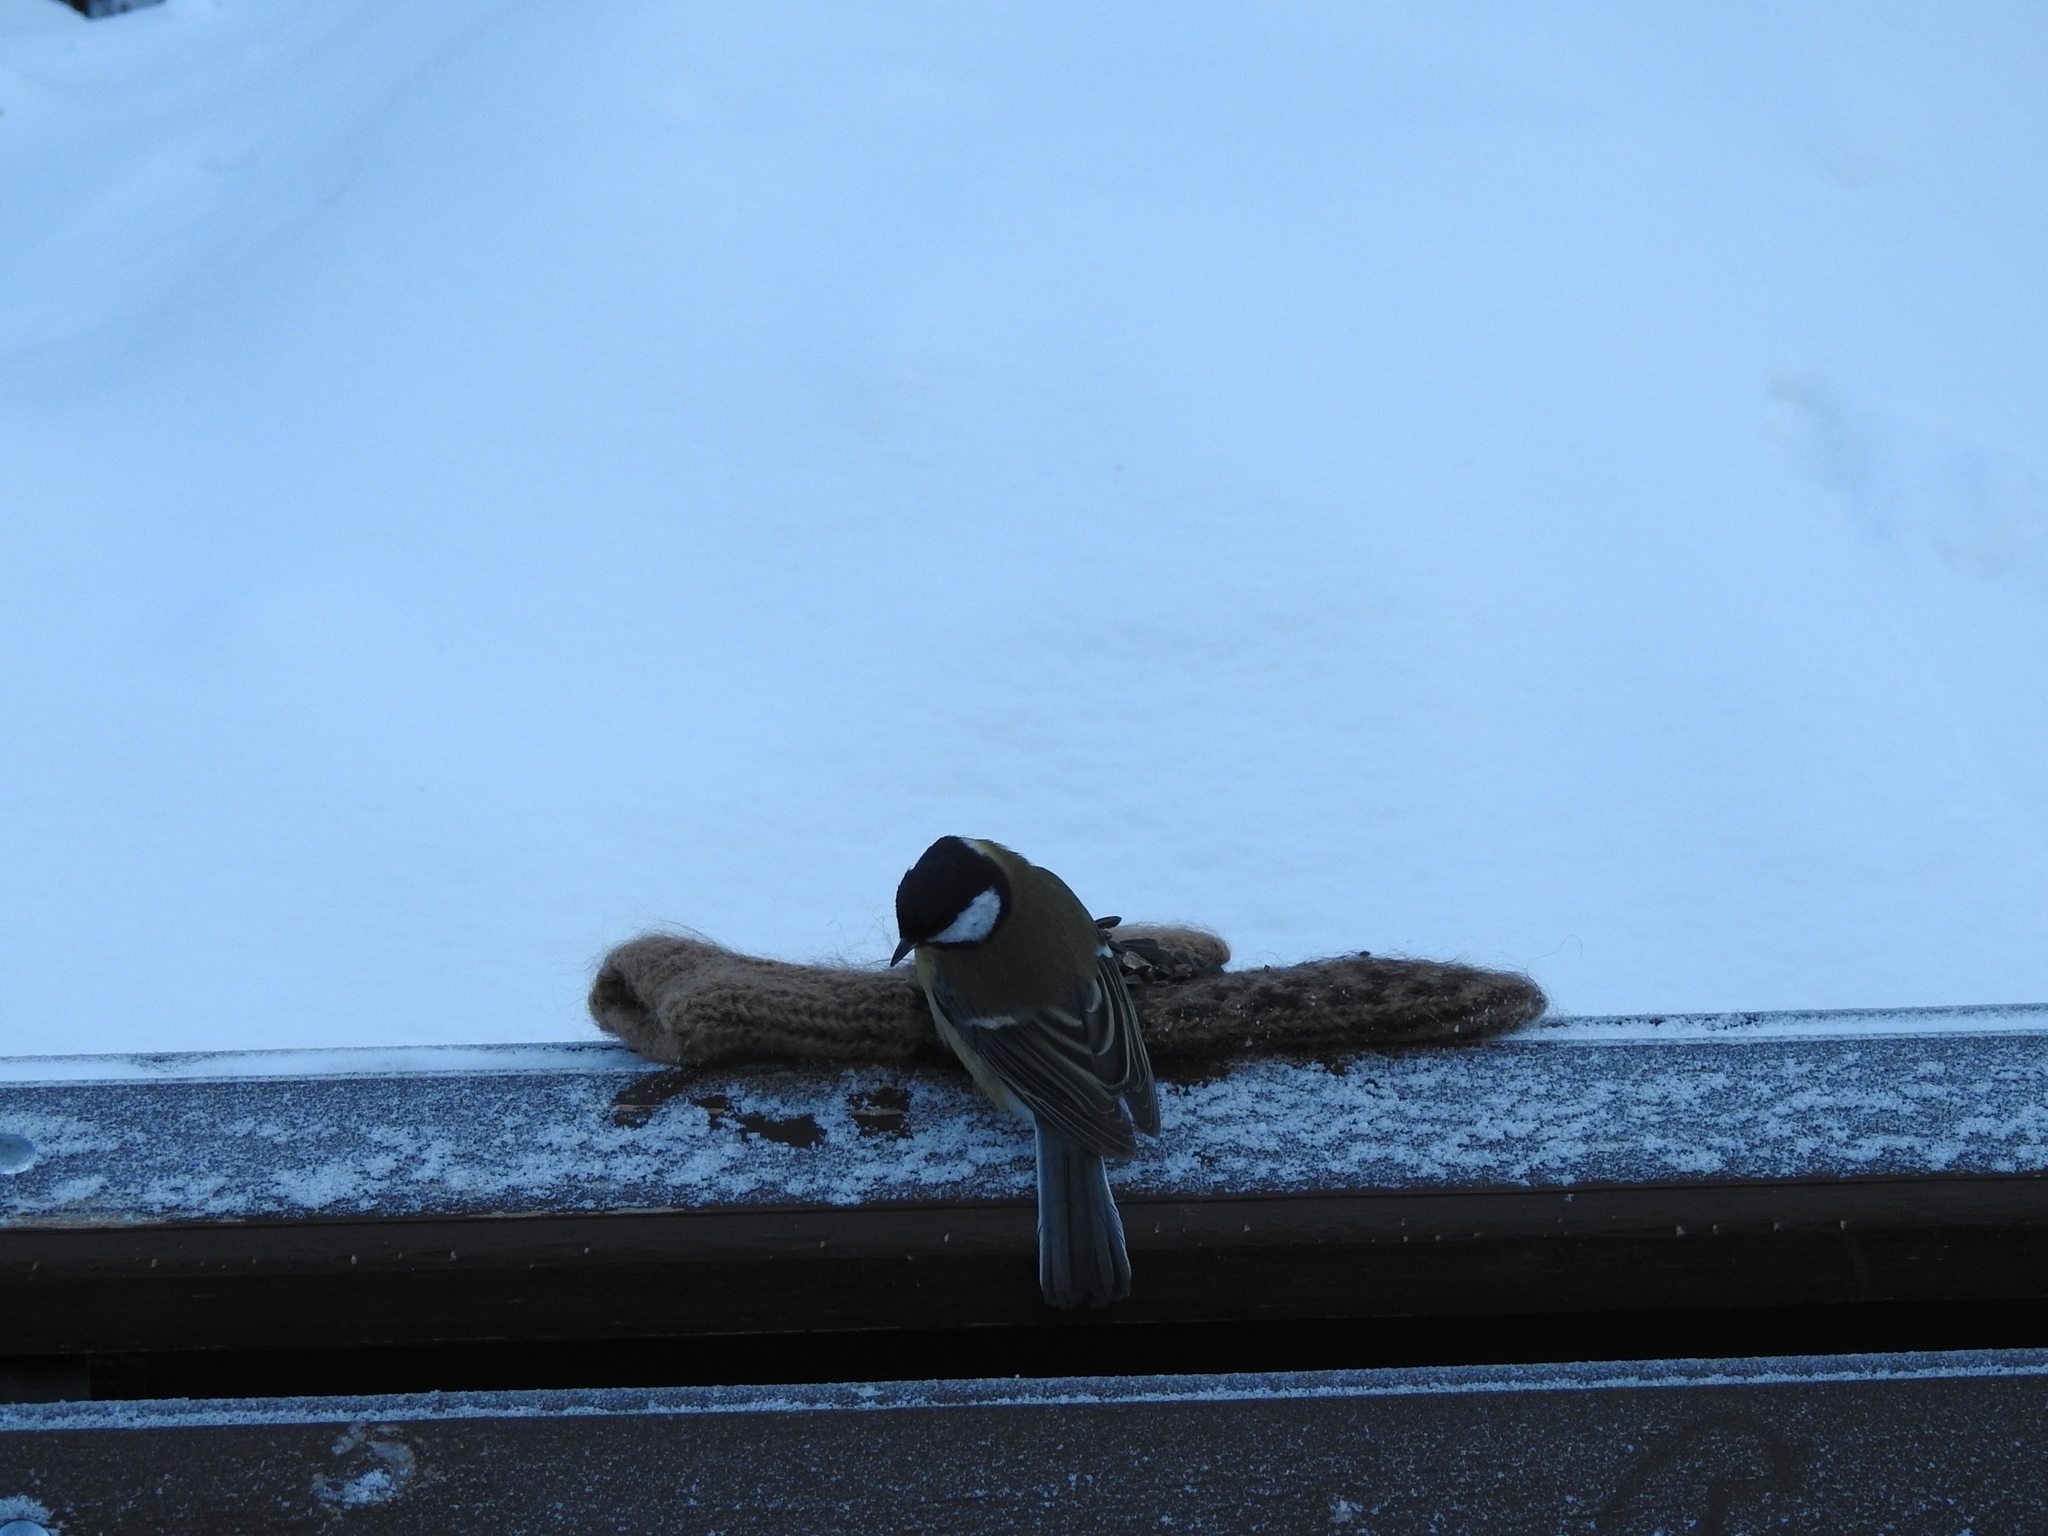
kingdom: Animalia
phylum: Chordata
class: Aves
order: Passeriformes
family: Paridae
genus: Parus
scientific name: Parus major
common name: Great tit
